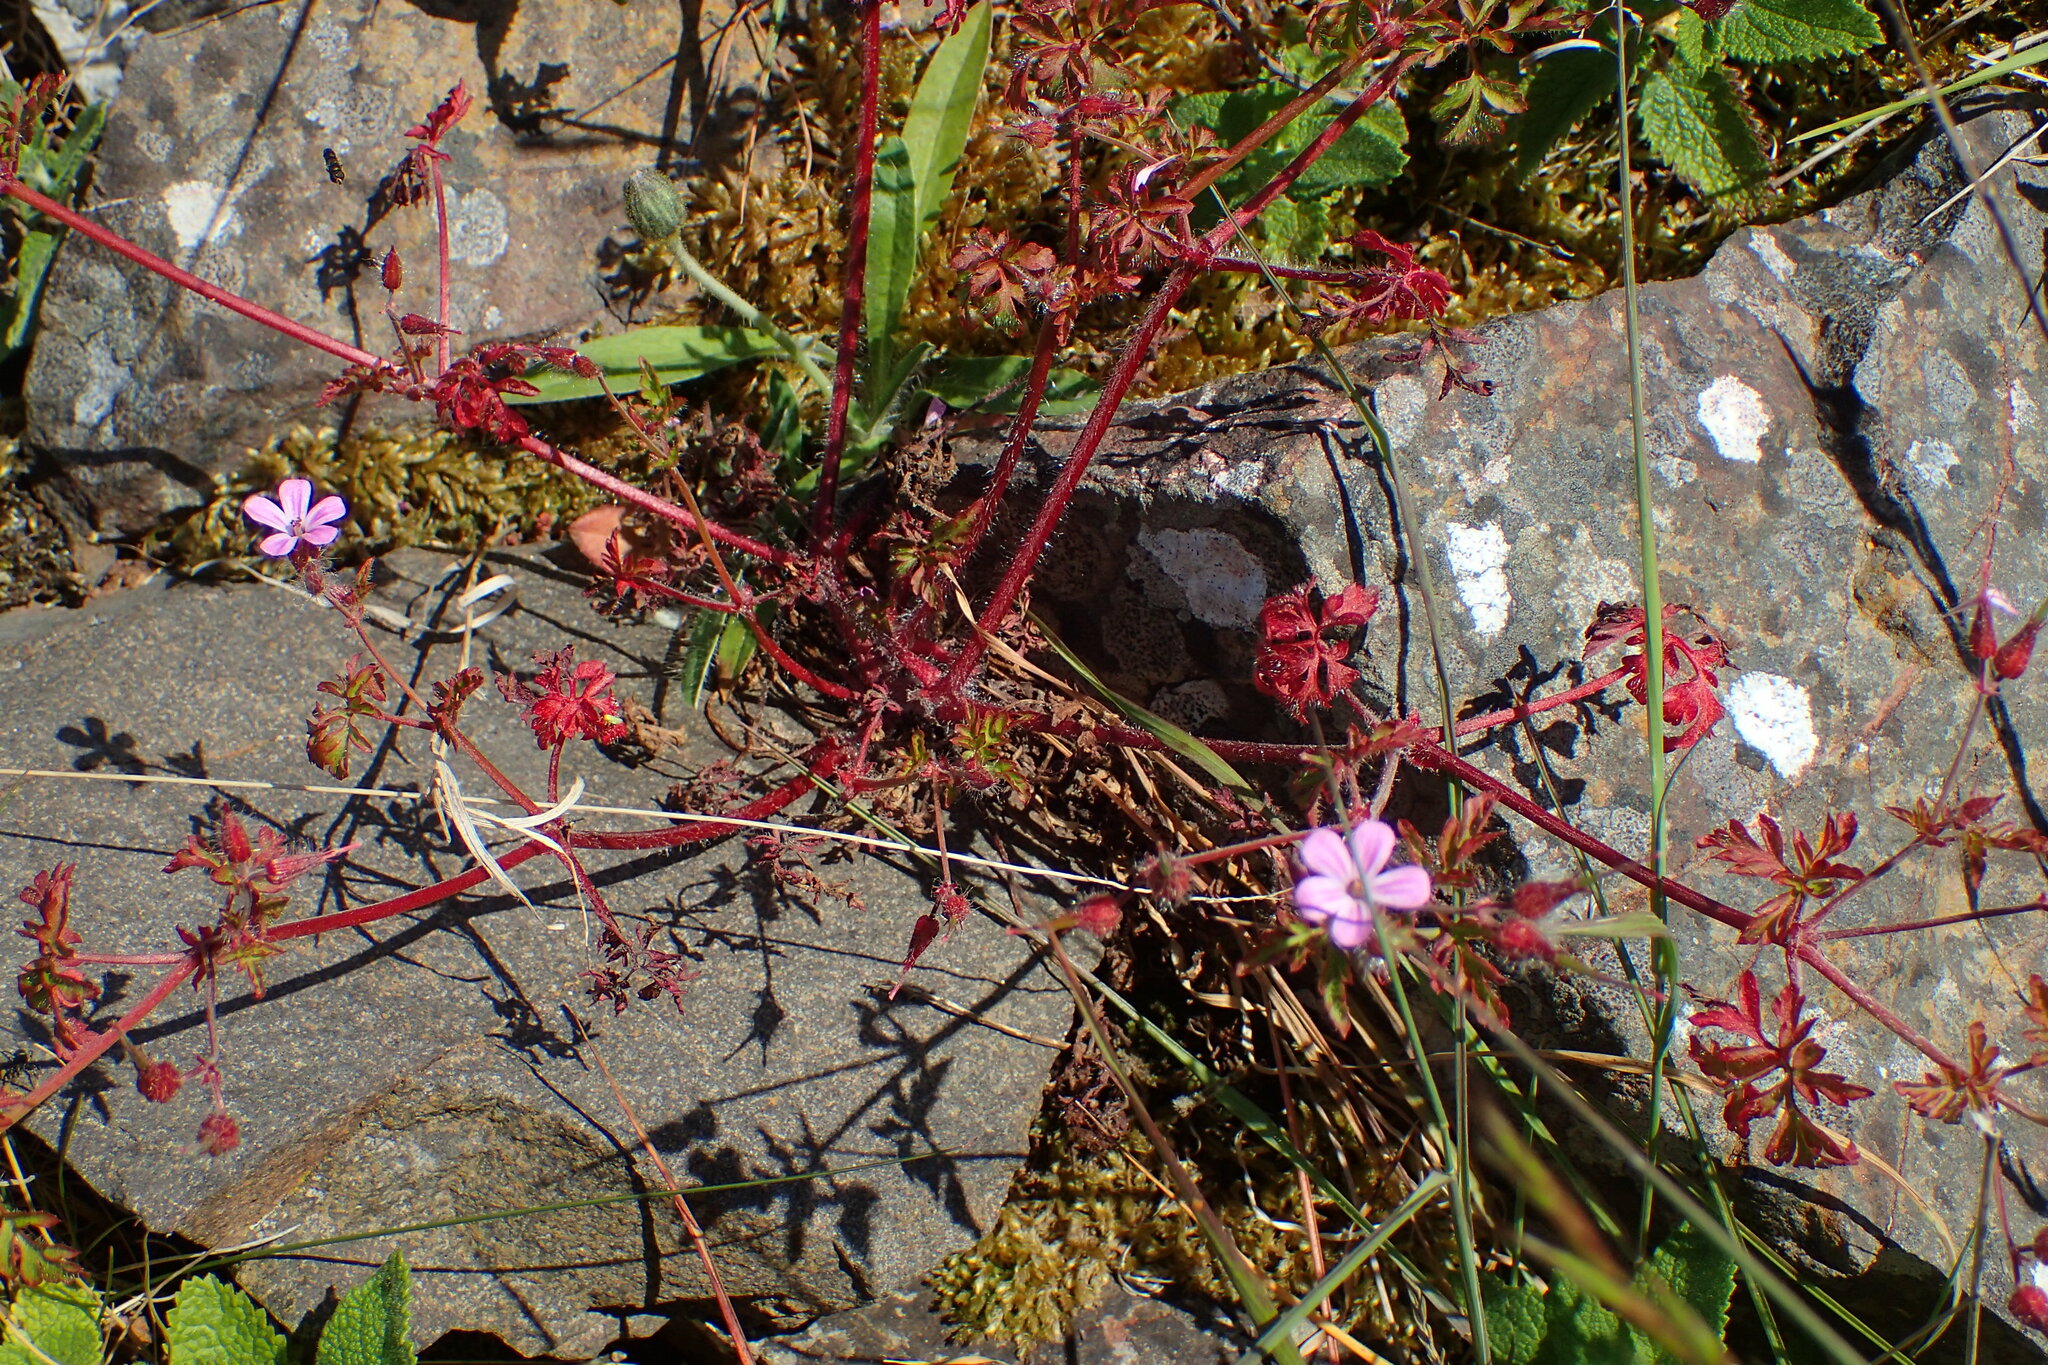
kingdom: Plantae
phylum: Tracheophyta
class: Magnoliopsida
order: Geraniales
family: Geraniaceae
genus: Geranium
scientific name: Geranium robertianum
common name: Herb-robert
